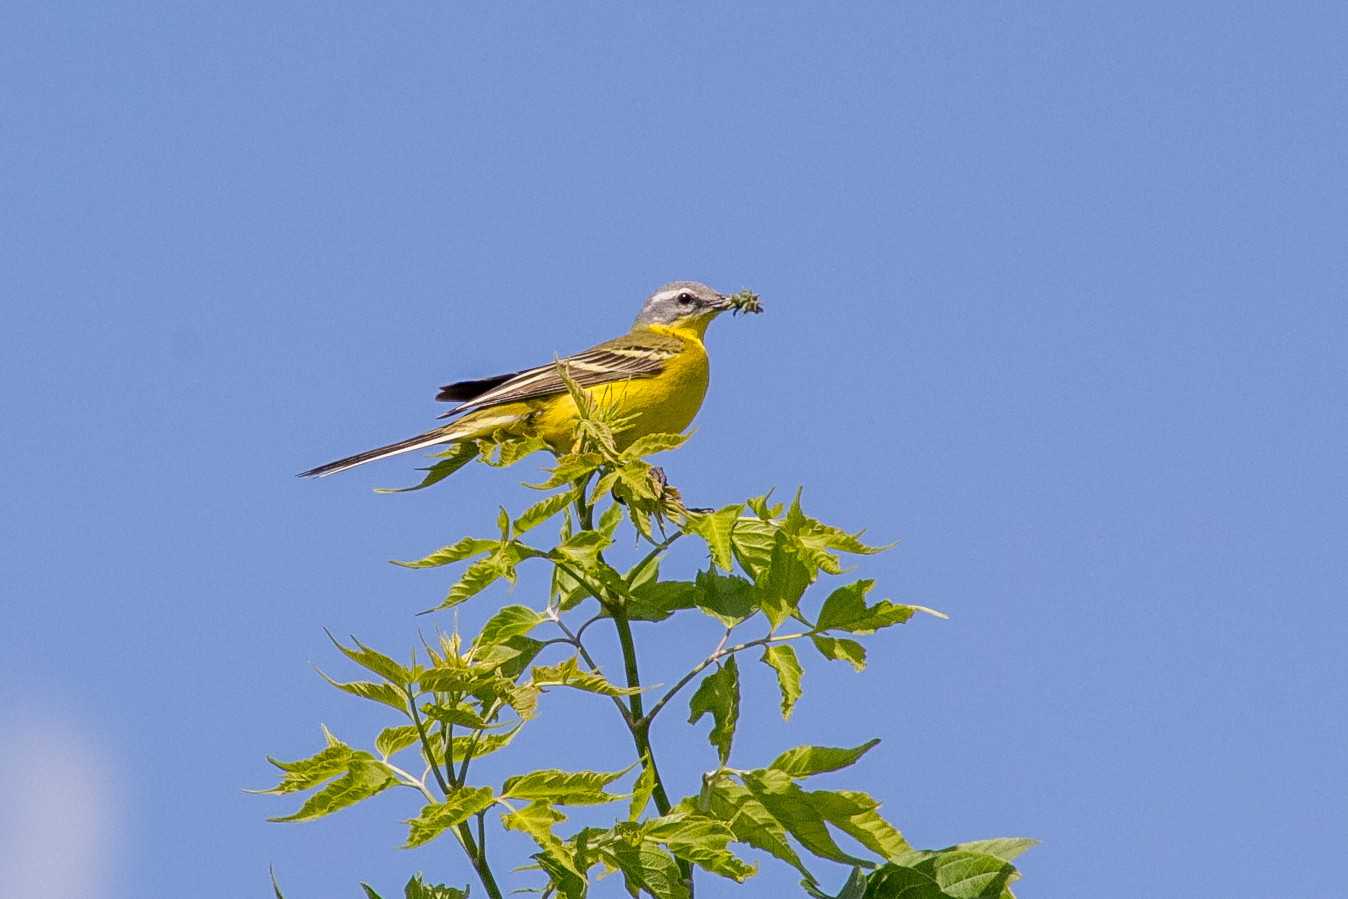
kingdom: Animalia
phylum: Chordata
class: Aves
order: Passeriformes
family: Motacillidae
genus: Motacilla
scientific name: Motacilla flava
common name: Western yellow wagtail
